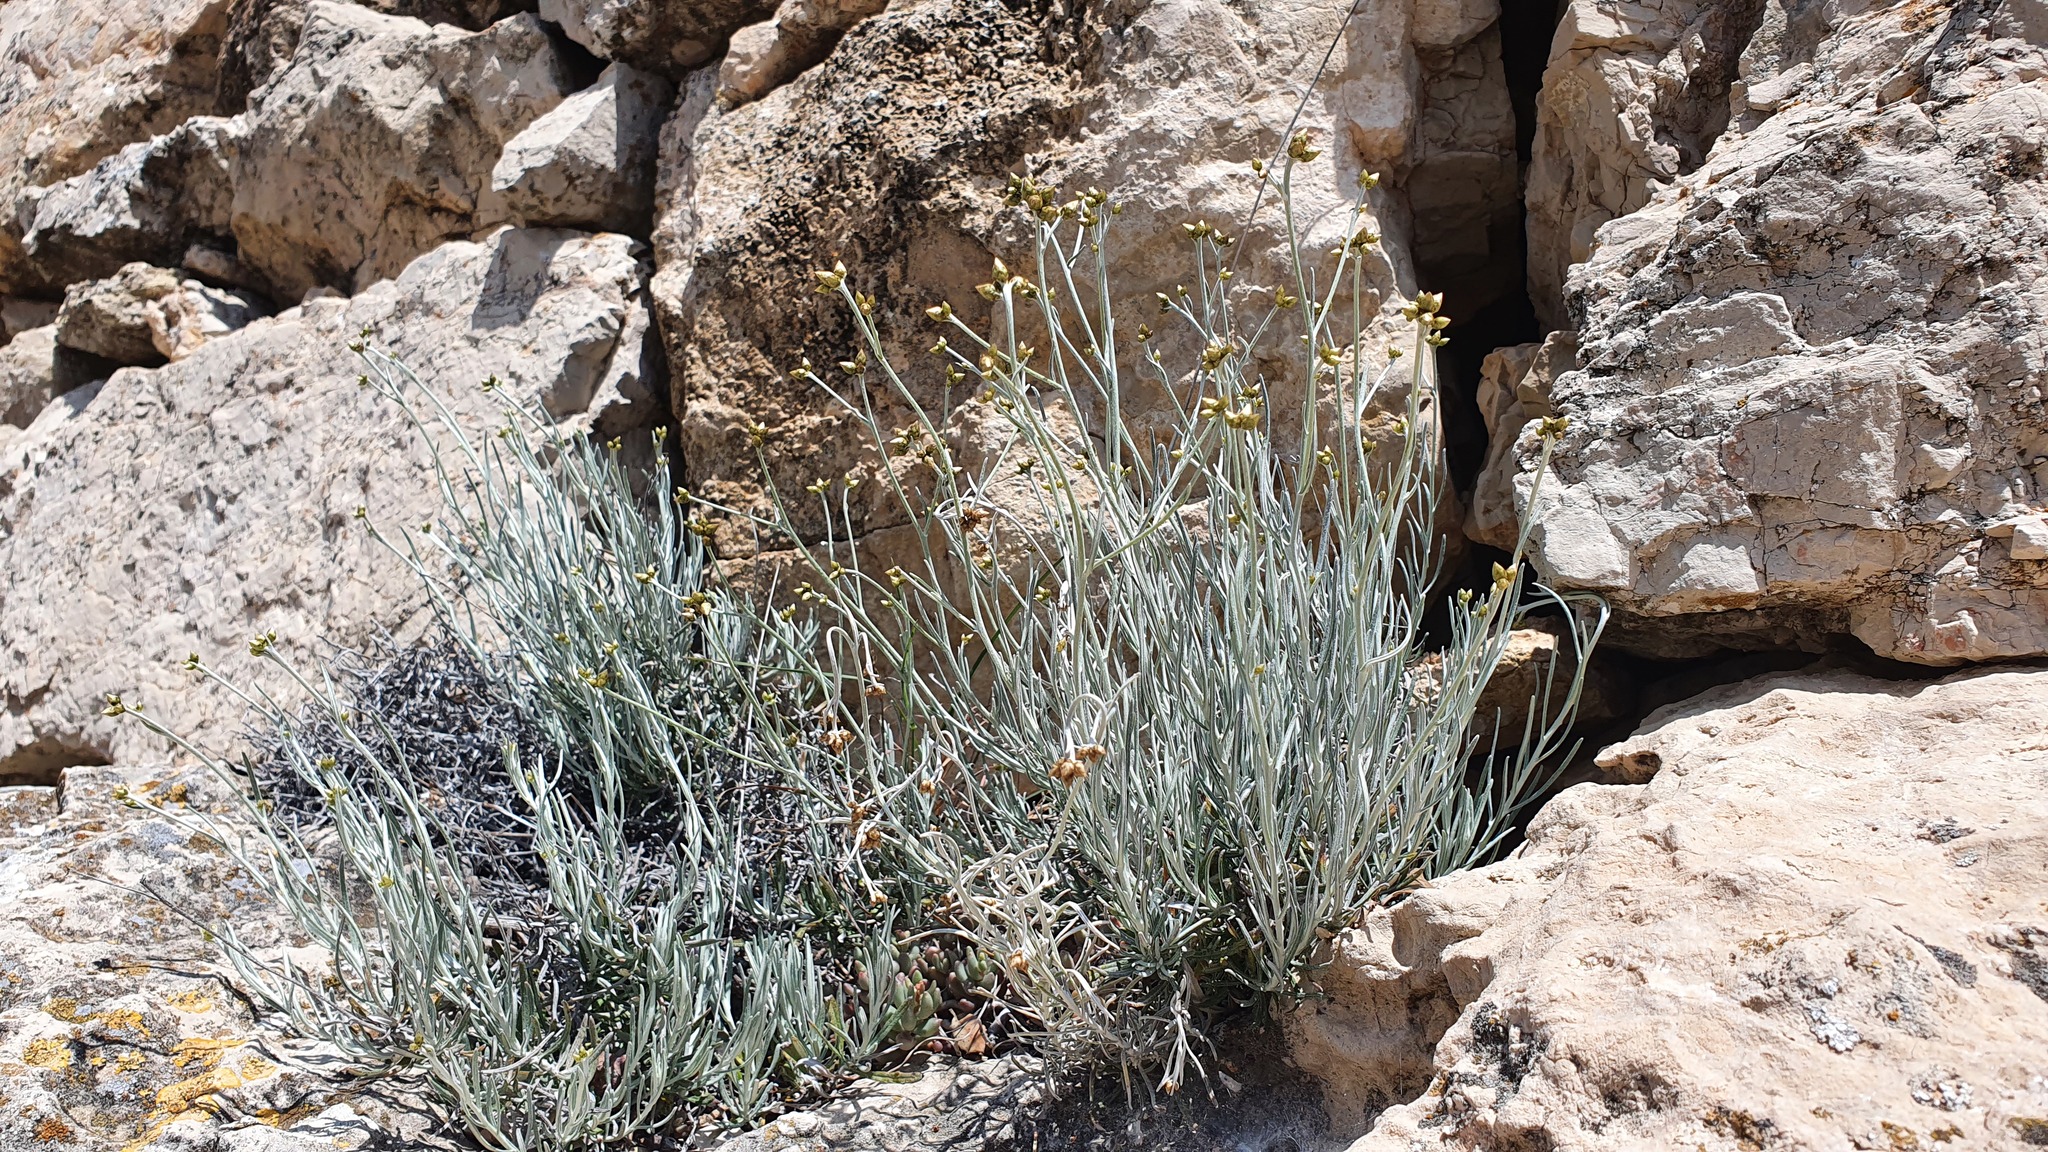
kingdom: Plantae
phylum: Tracheophyta
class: Magnoliopsida
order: Asterales
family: Asteraceae
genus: Phagnalon
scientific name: Phagnalon sordidum
